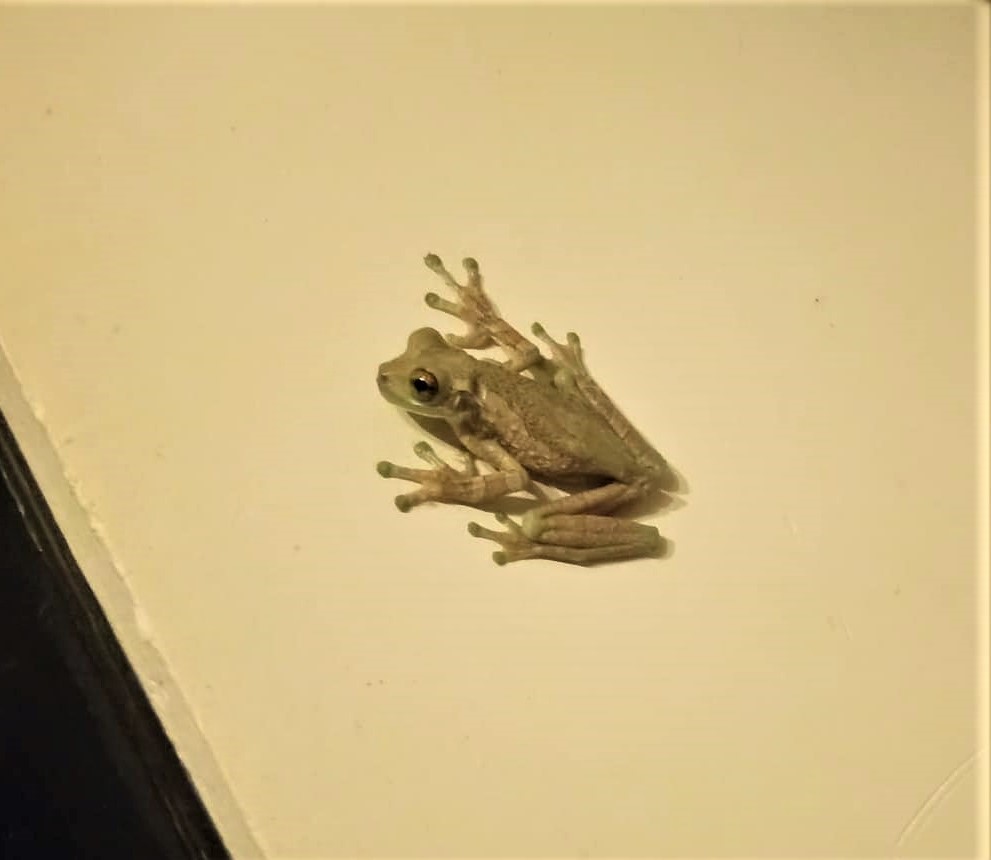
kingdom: Animalia
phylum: Chordata
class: Amphibia
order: Anura
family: Hylidae
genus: Trachycephalus
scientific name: Trachycephalus typhonius
